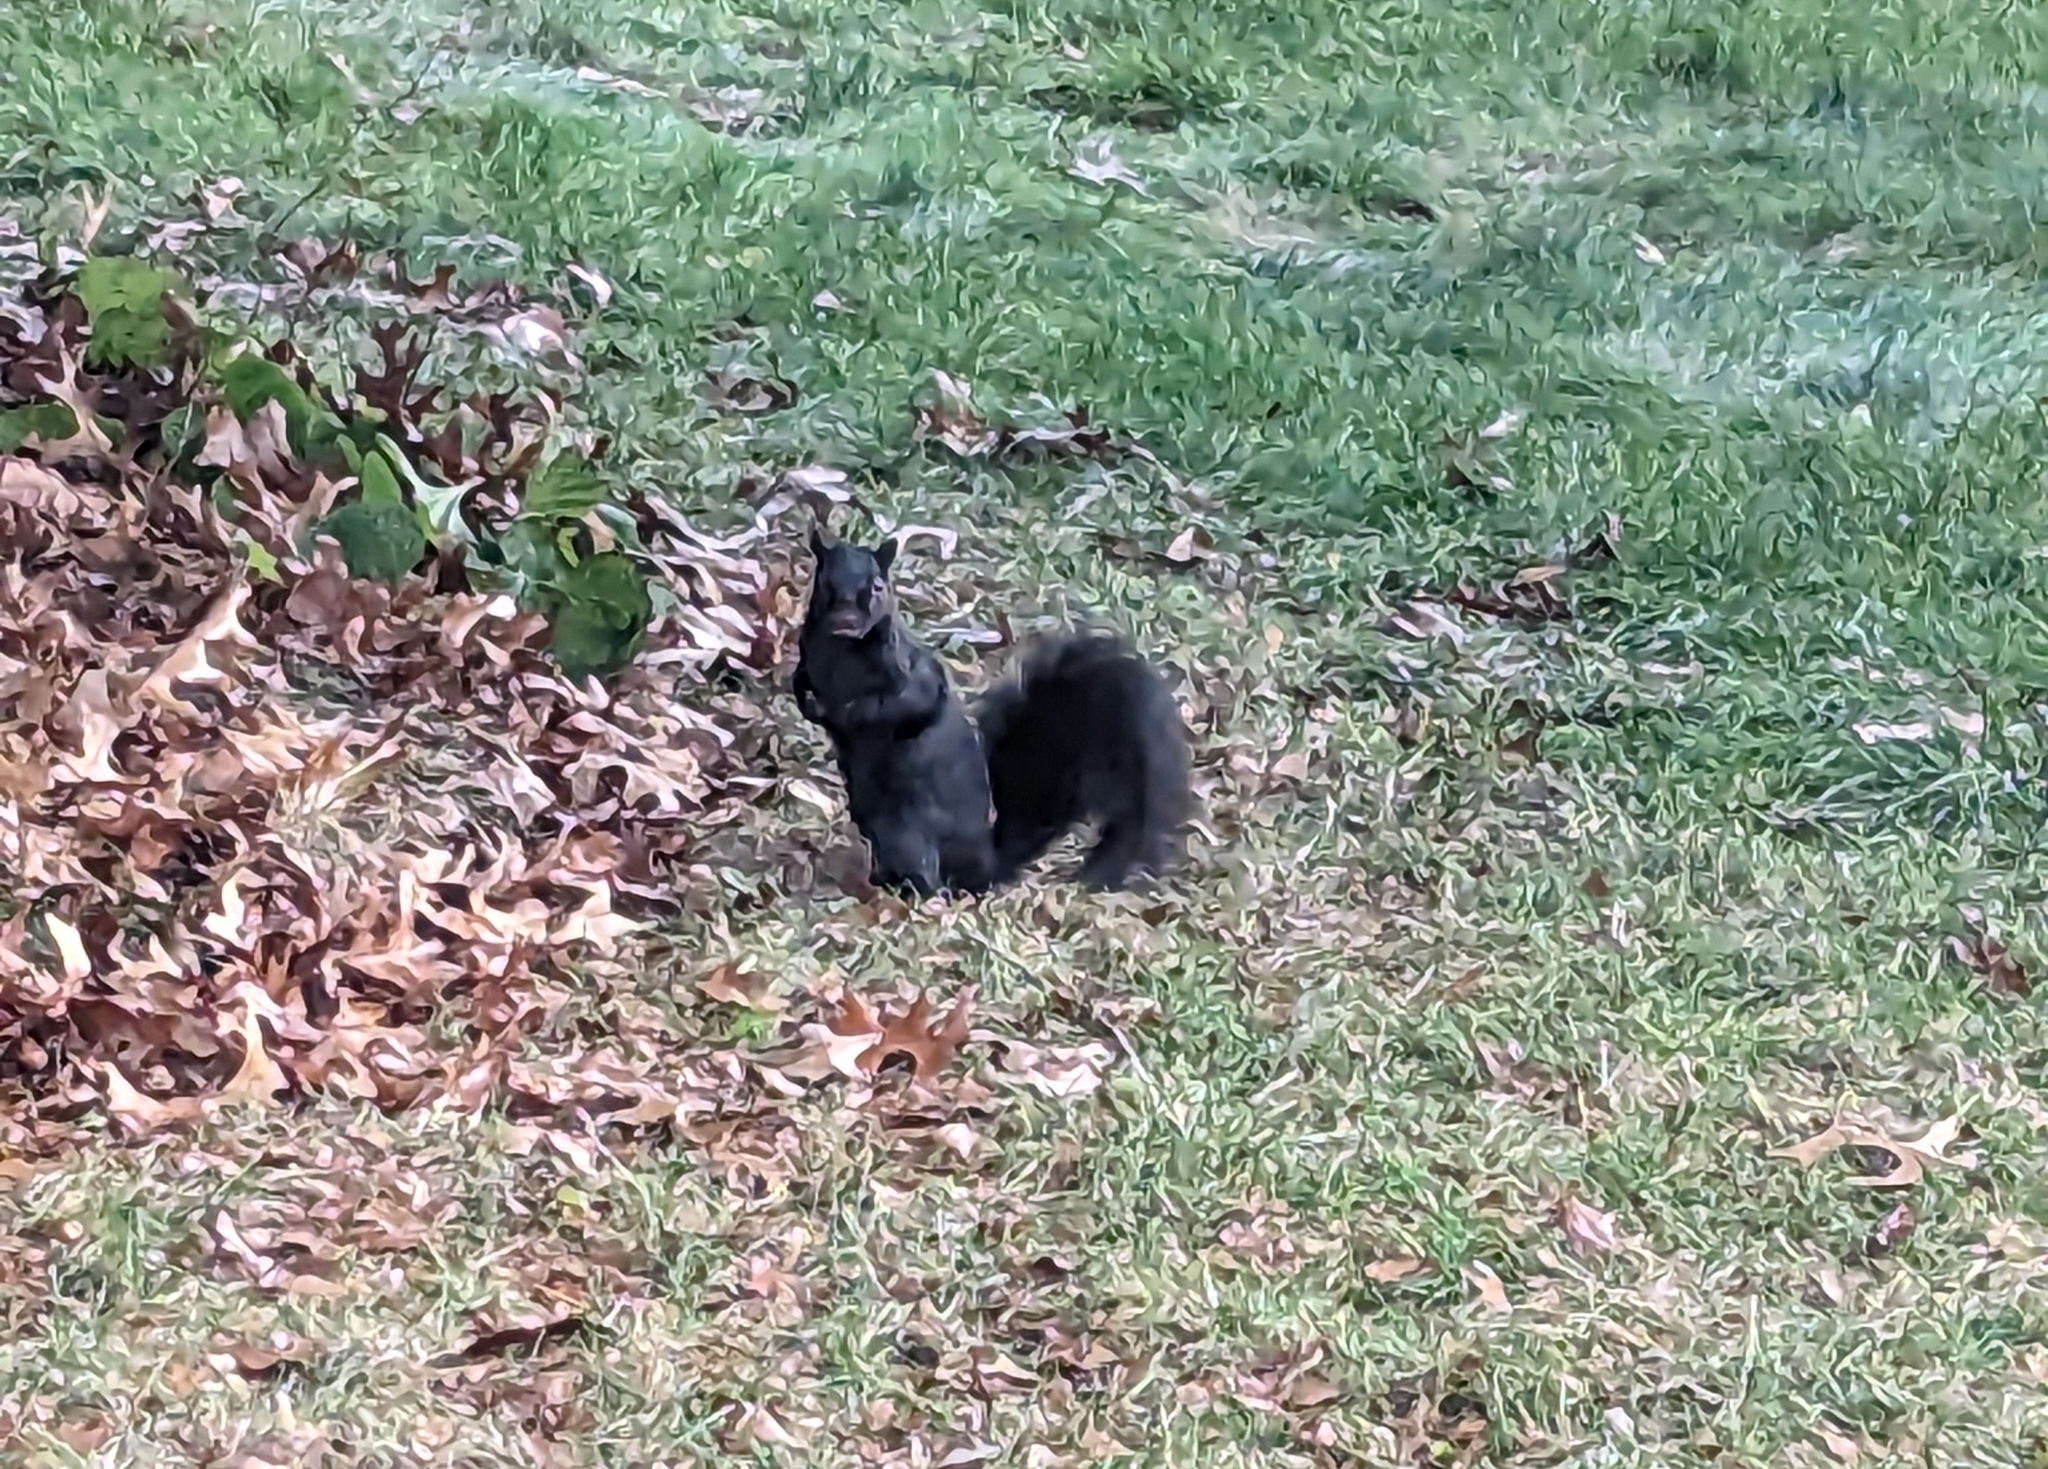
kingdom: Animalia
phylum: Chordata
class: Mammalia
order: Rodentia
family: Sciuridae
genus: Sciurus
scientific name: Sciurus carolinensis
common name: Eastern gray squirrel
